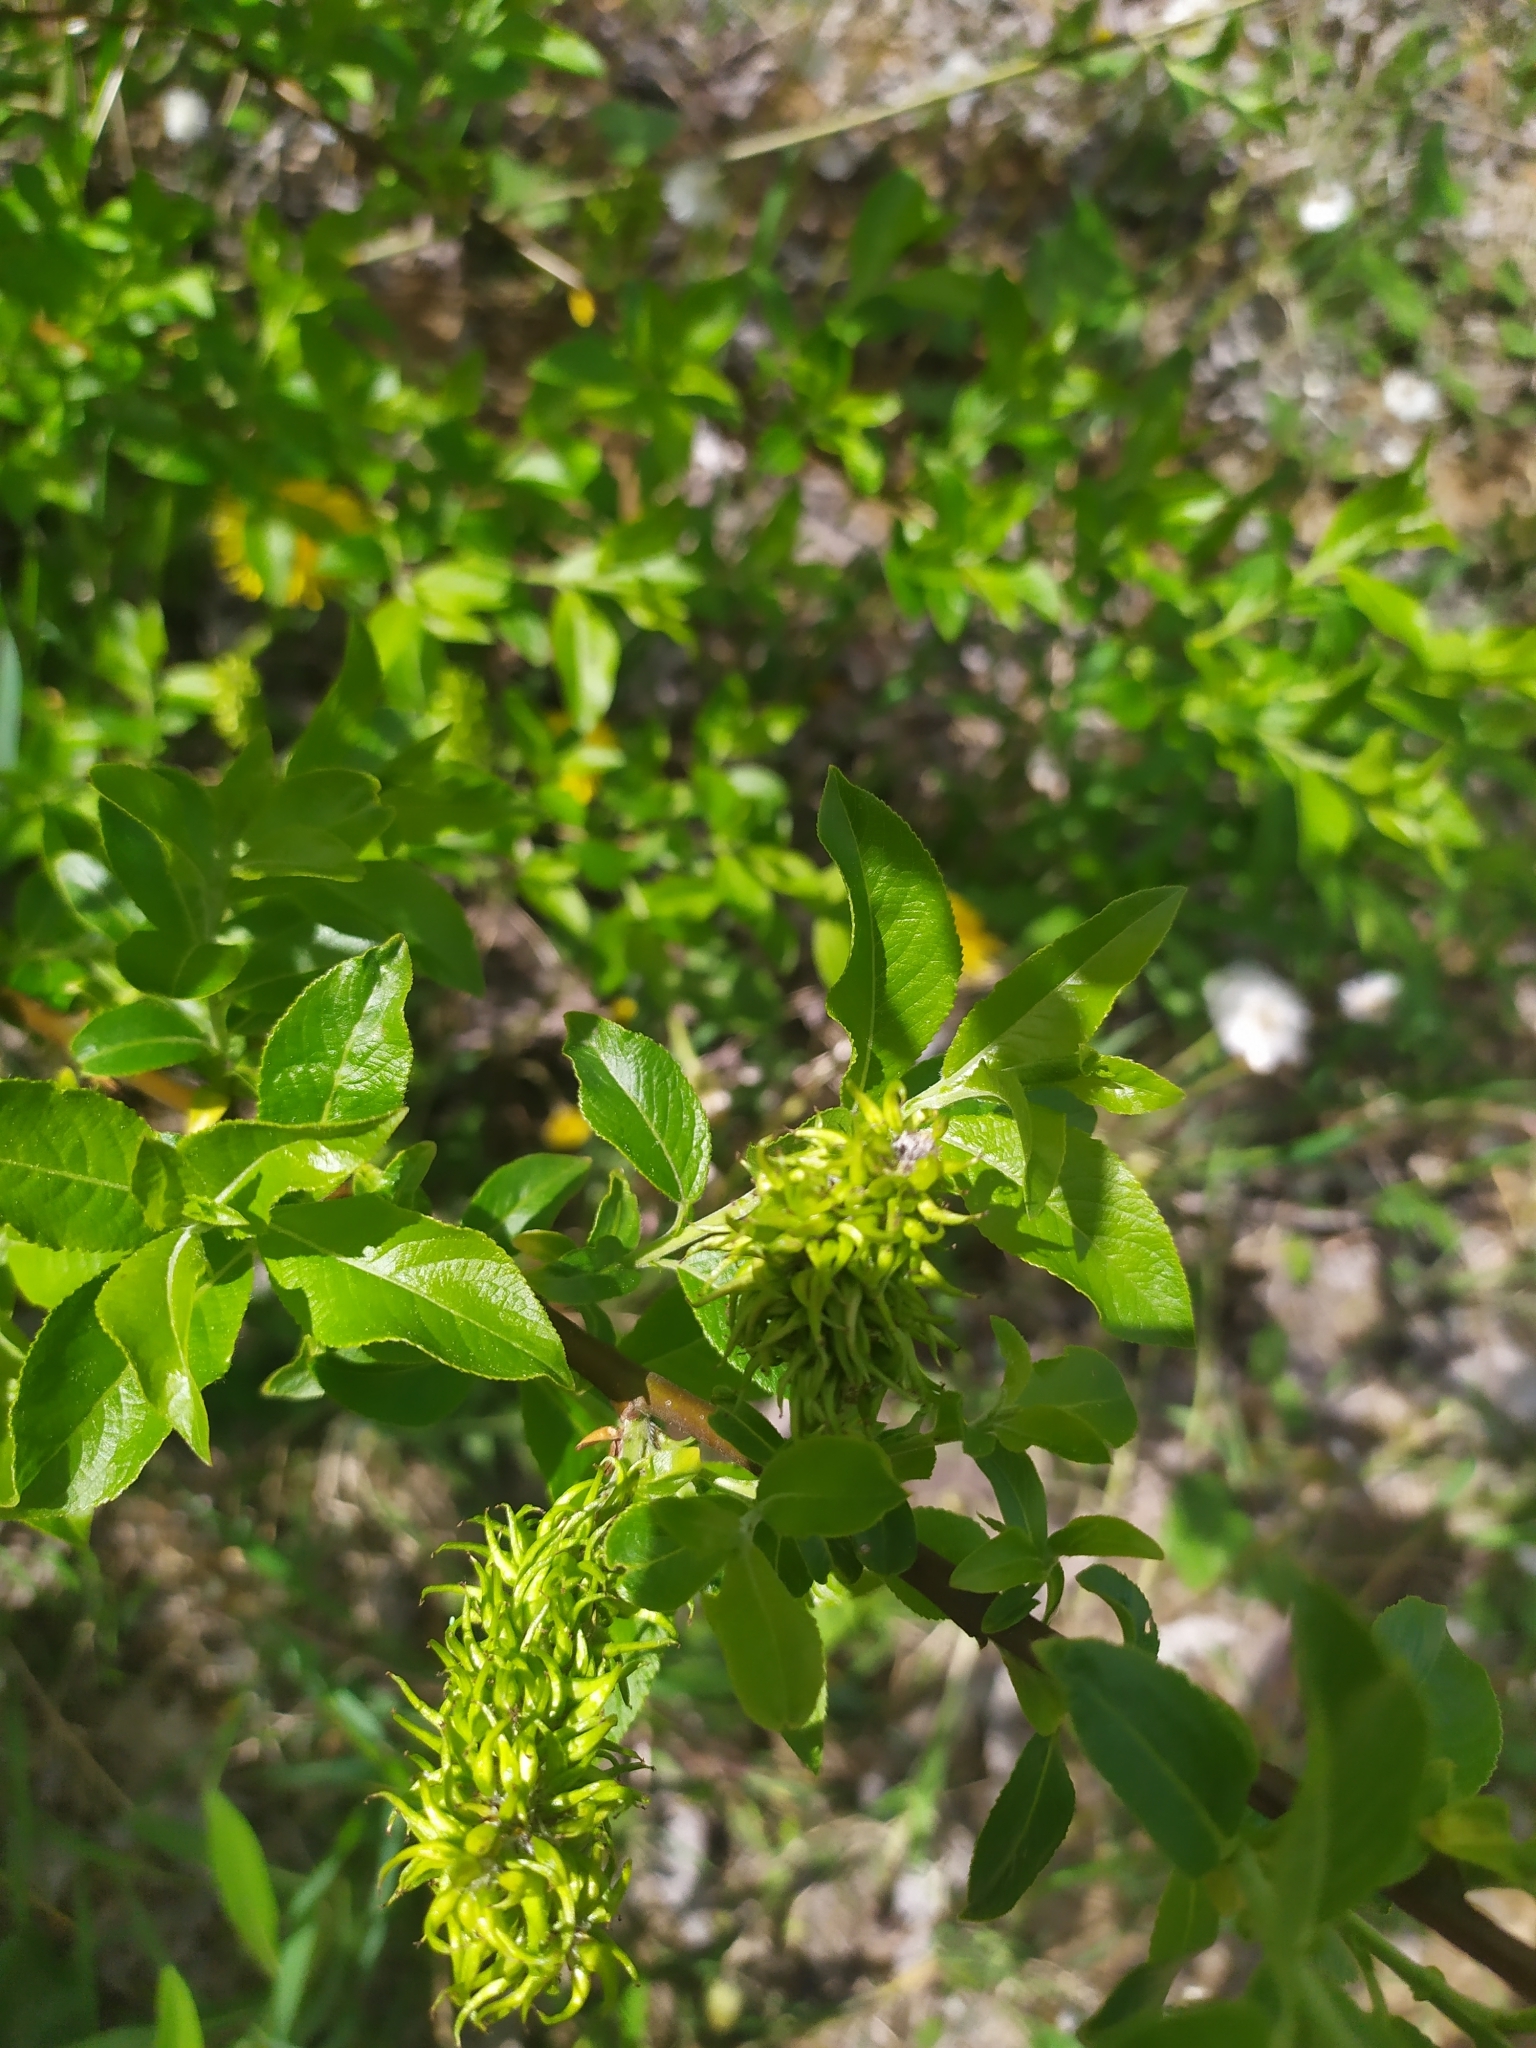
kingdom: Plantae
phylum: Tracheophyta
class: Magnoliopsida
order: Malpighiales
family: Salicaceae
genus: Salix
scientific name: Salix caprea
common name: Goat willow
